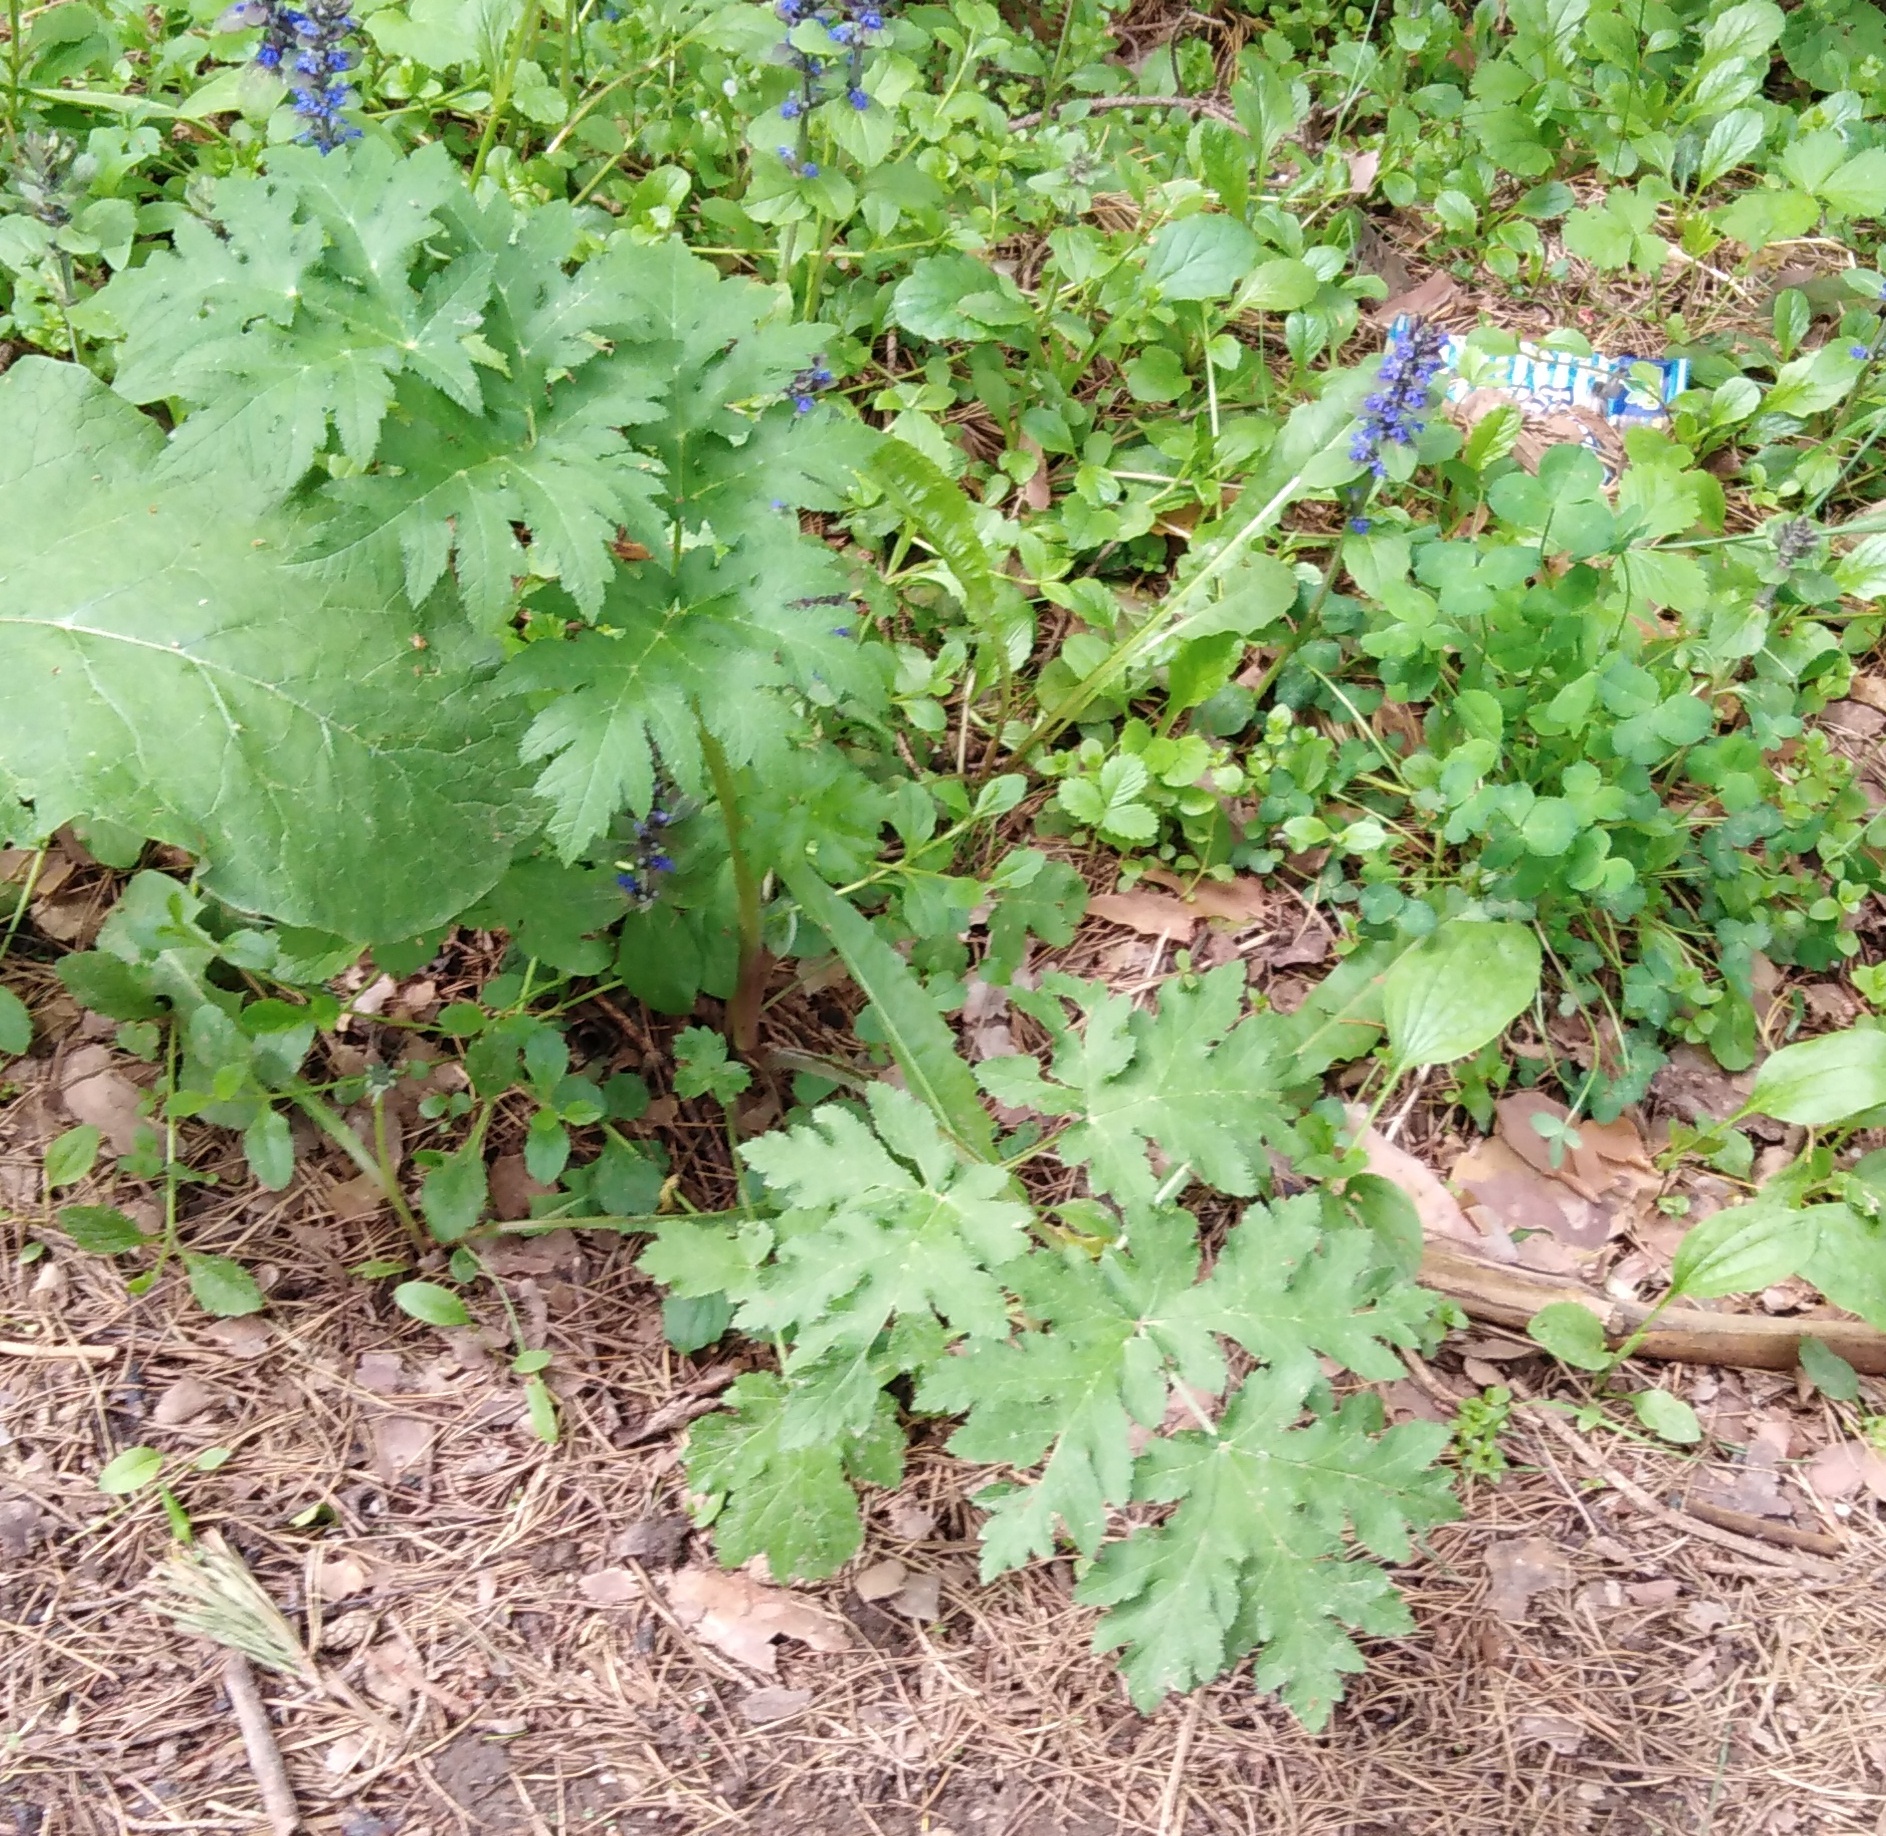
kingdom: Plantae
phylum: Tracheophyta
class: Magnoliopsida
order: Apiales
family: Apiaceae
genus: Heracleum
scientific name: Heracleum sphondylium
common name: Hogweed
